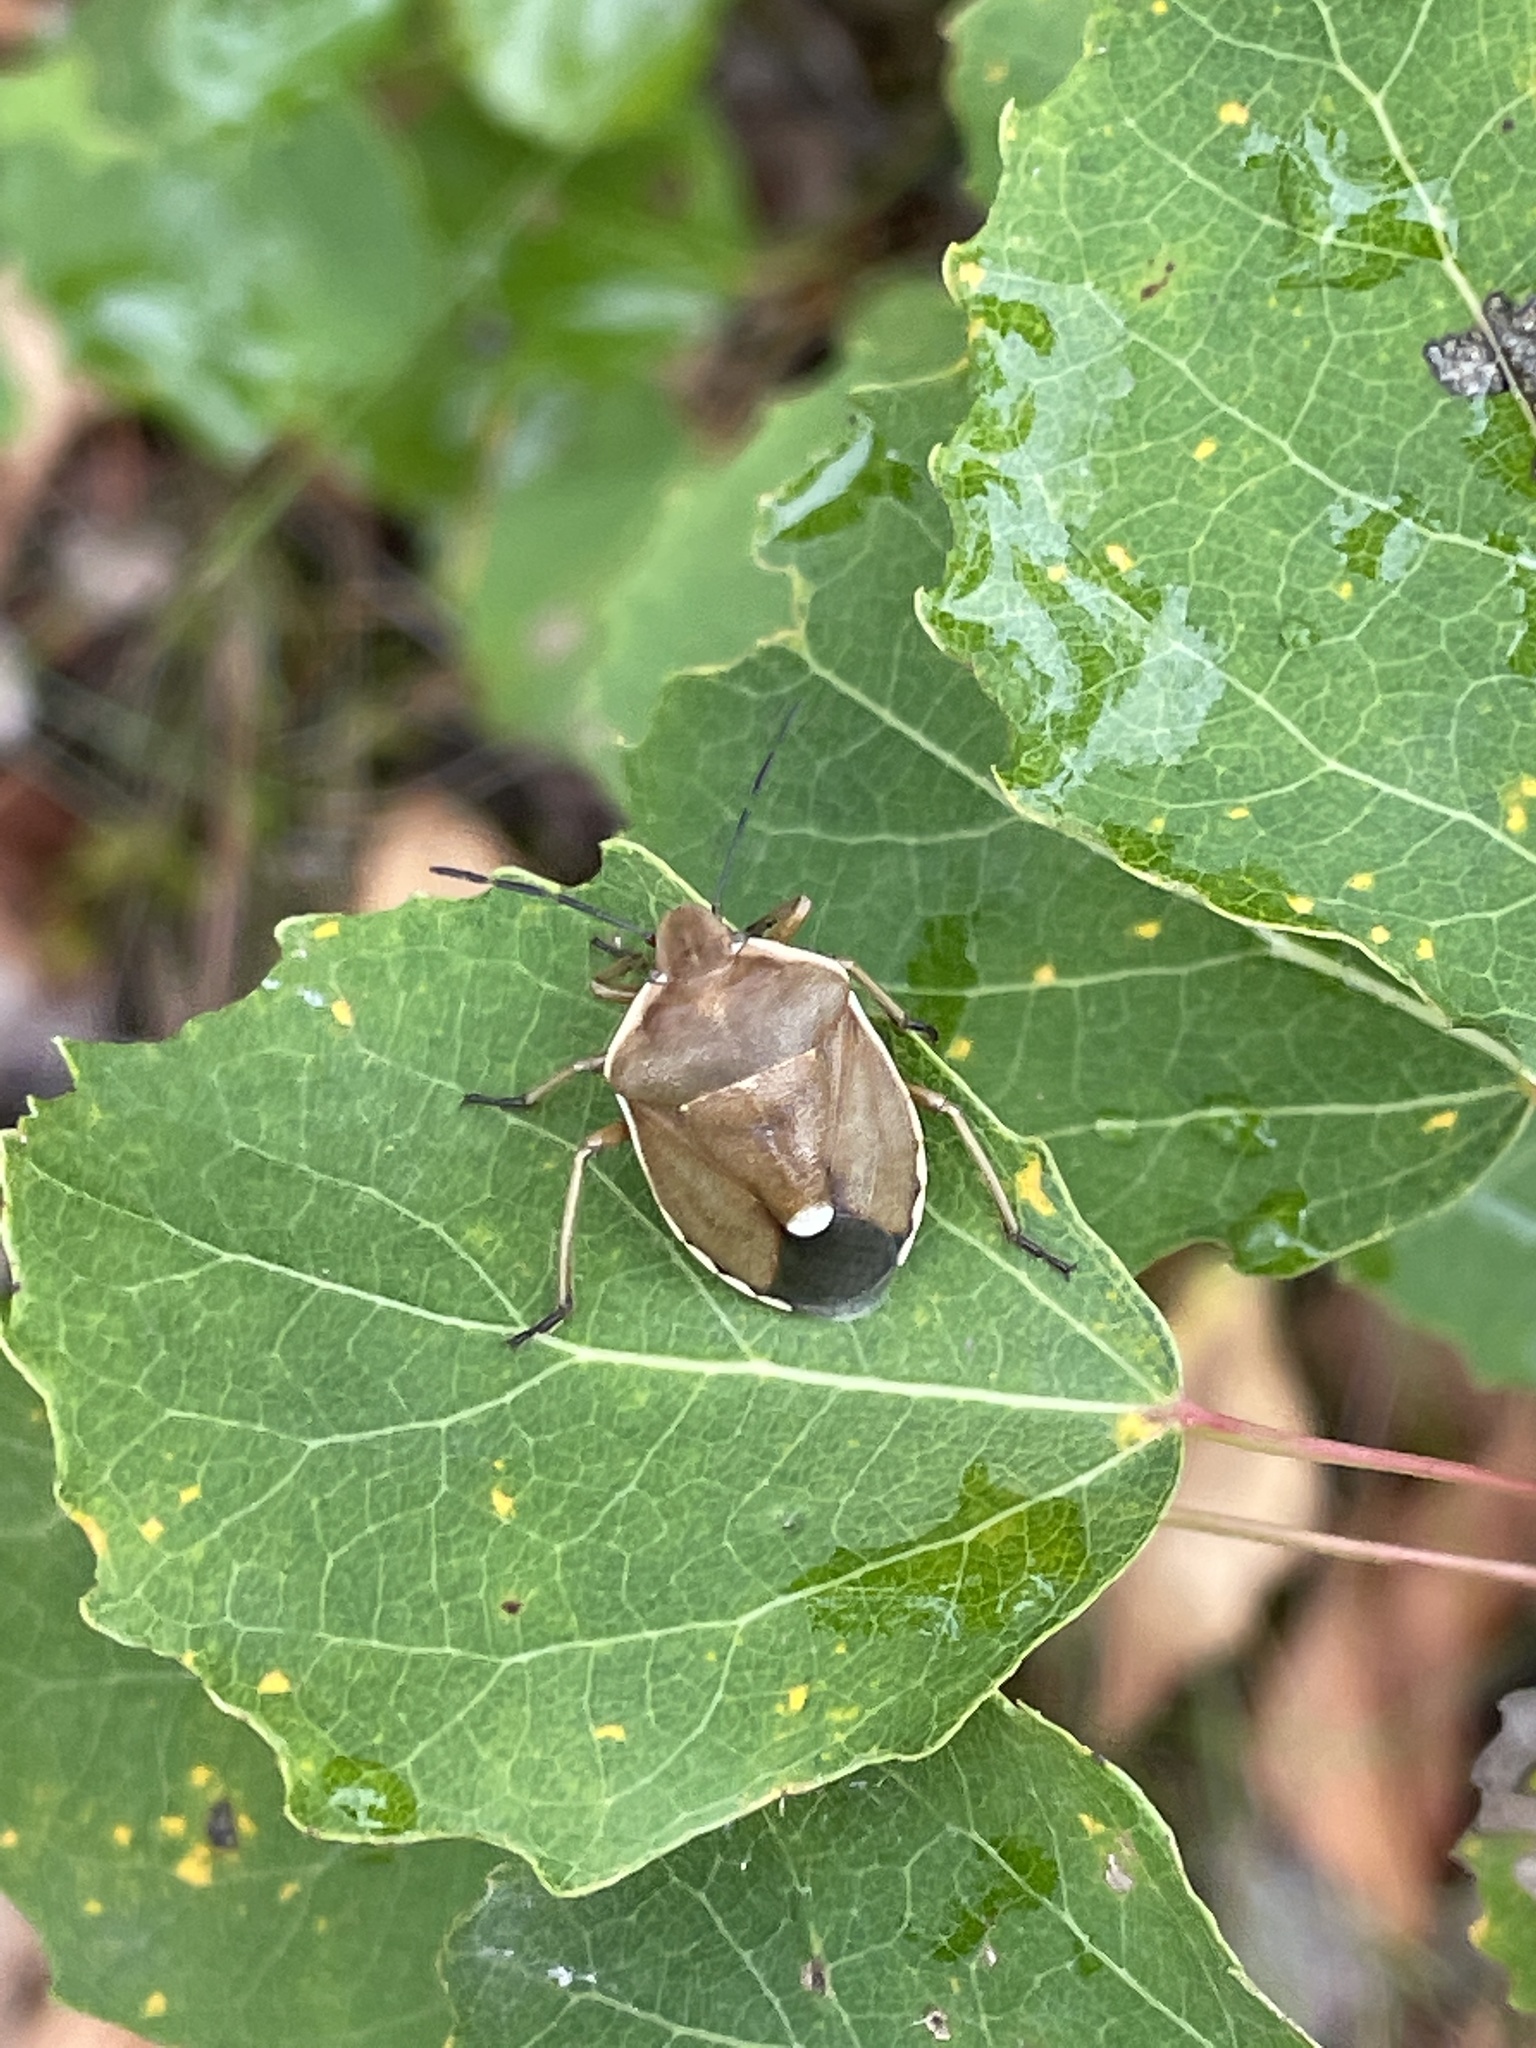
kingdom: Animalia
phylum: Arthropoda
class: Insecta
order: Hemiptera
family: Pentatomidae
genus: Chlorochroa
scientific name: Chlorochroa pinicola
